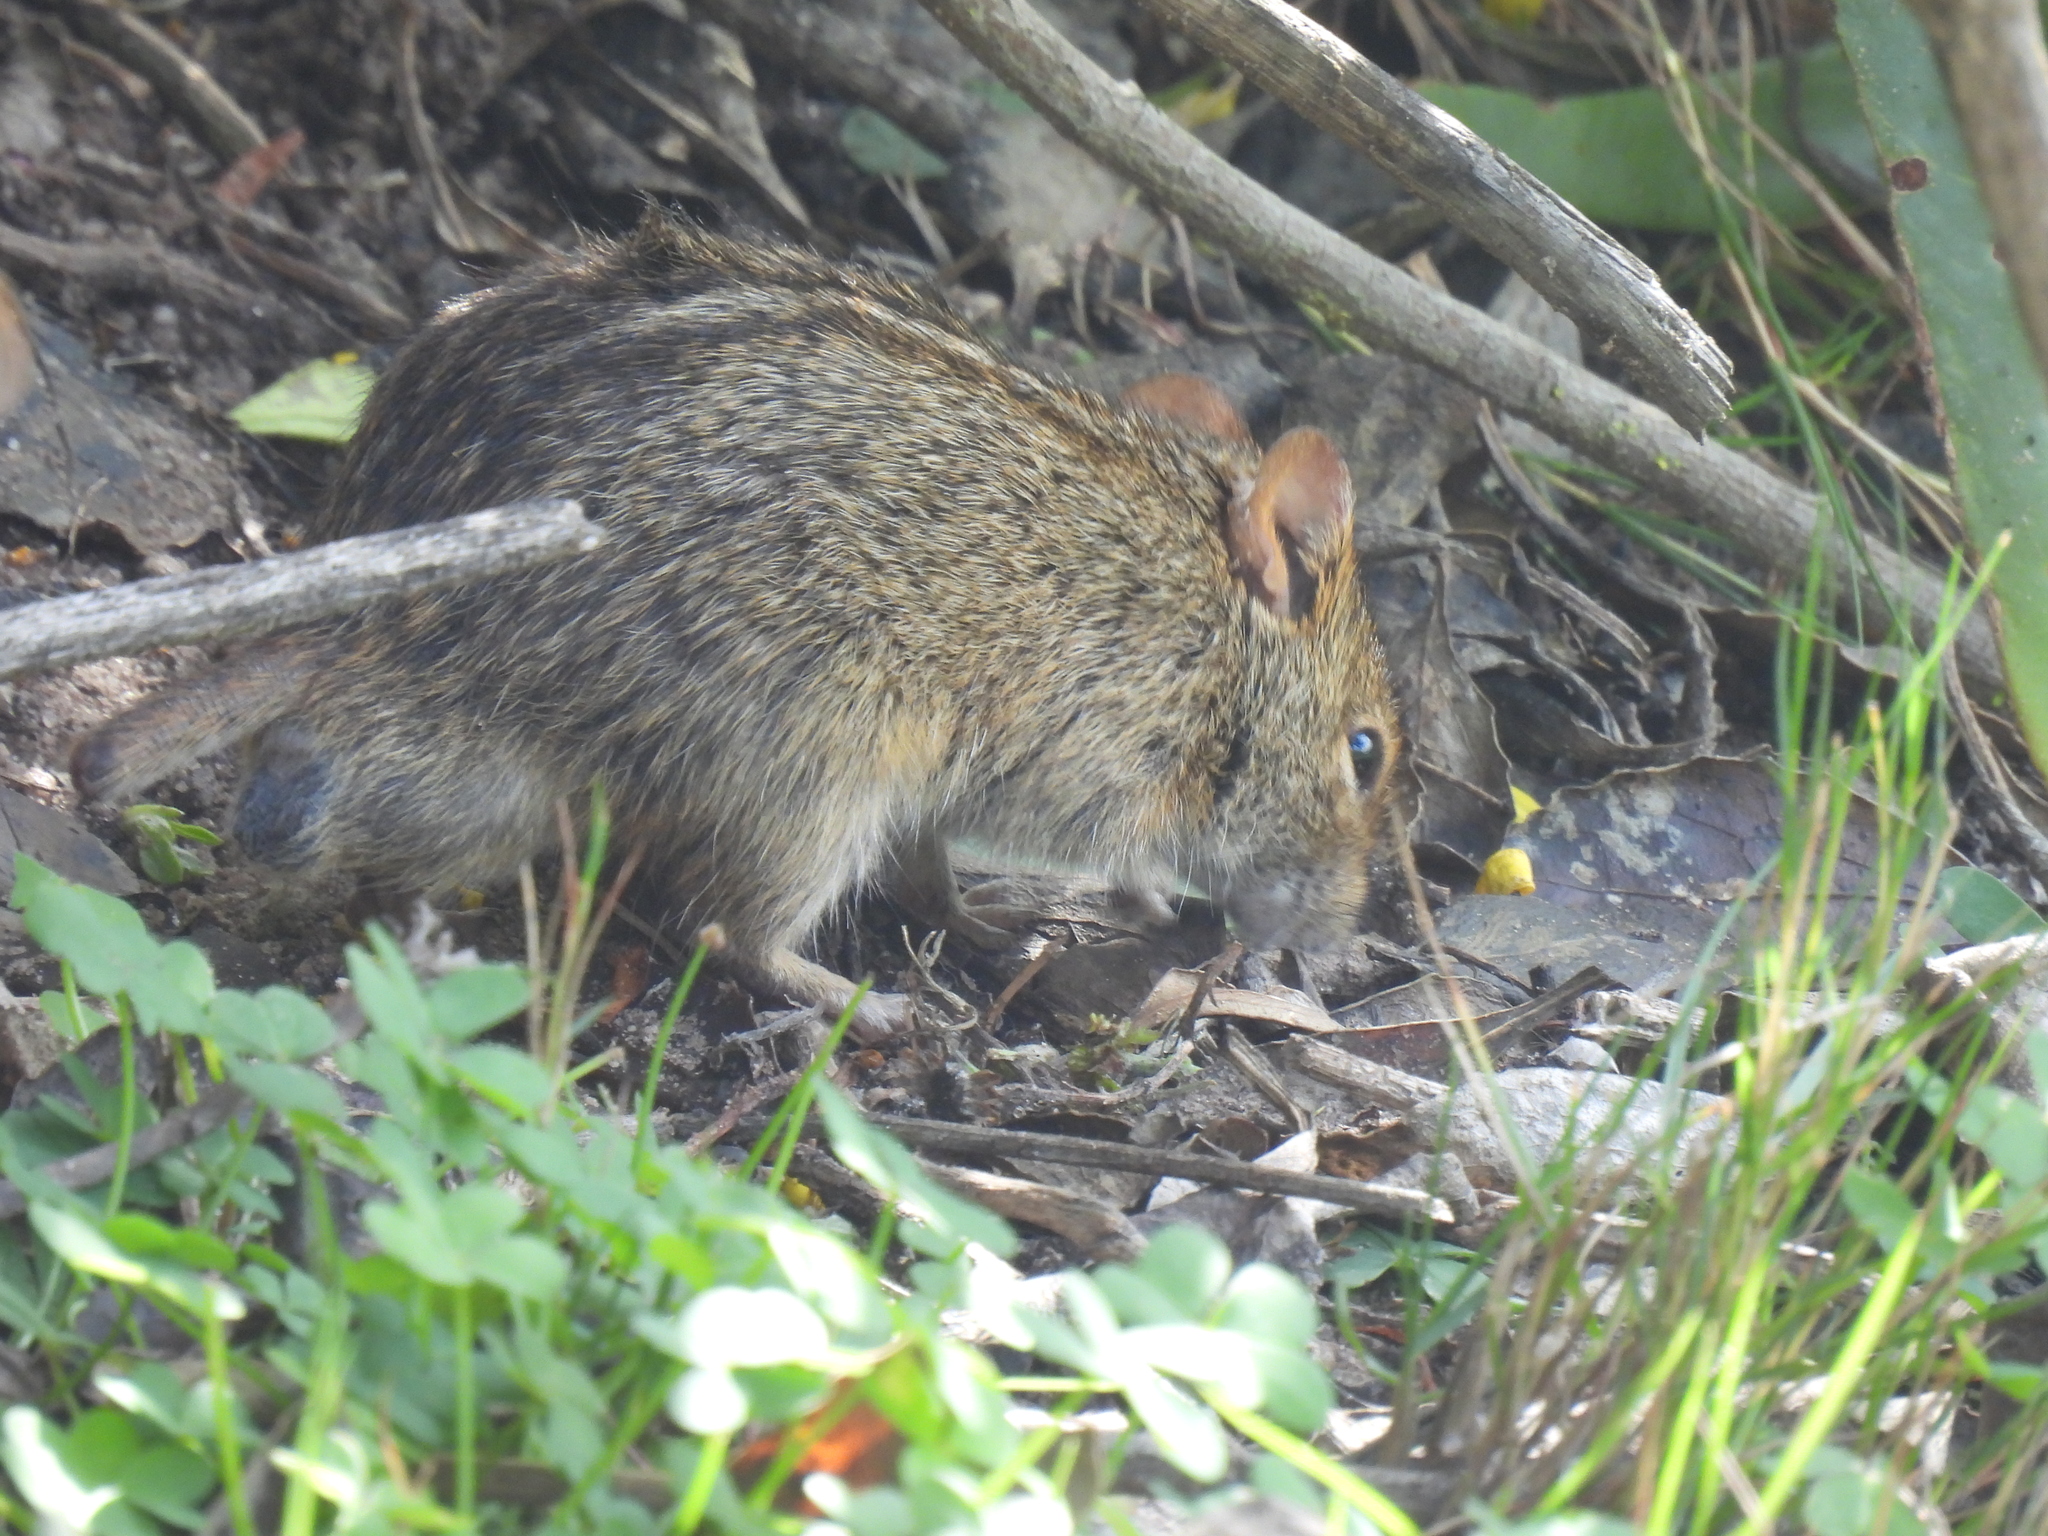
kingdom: Animalia
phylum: Chordata
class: Mammalia
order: Rodentia
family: Muridae
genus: Rhabdomys
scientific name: Rhabdomys pumilio
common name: Xeric four-striped grass rat
